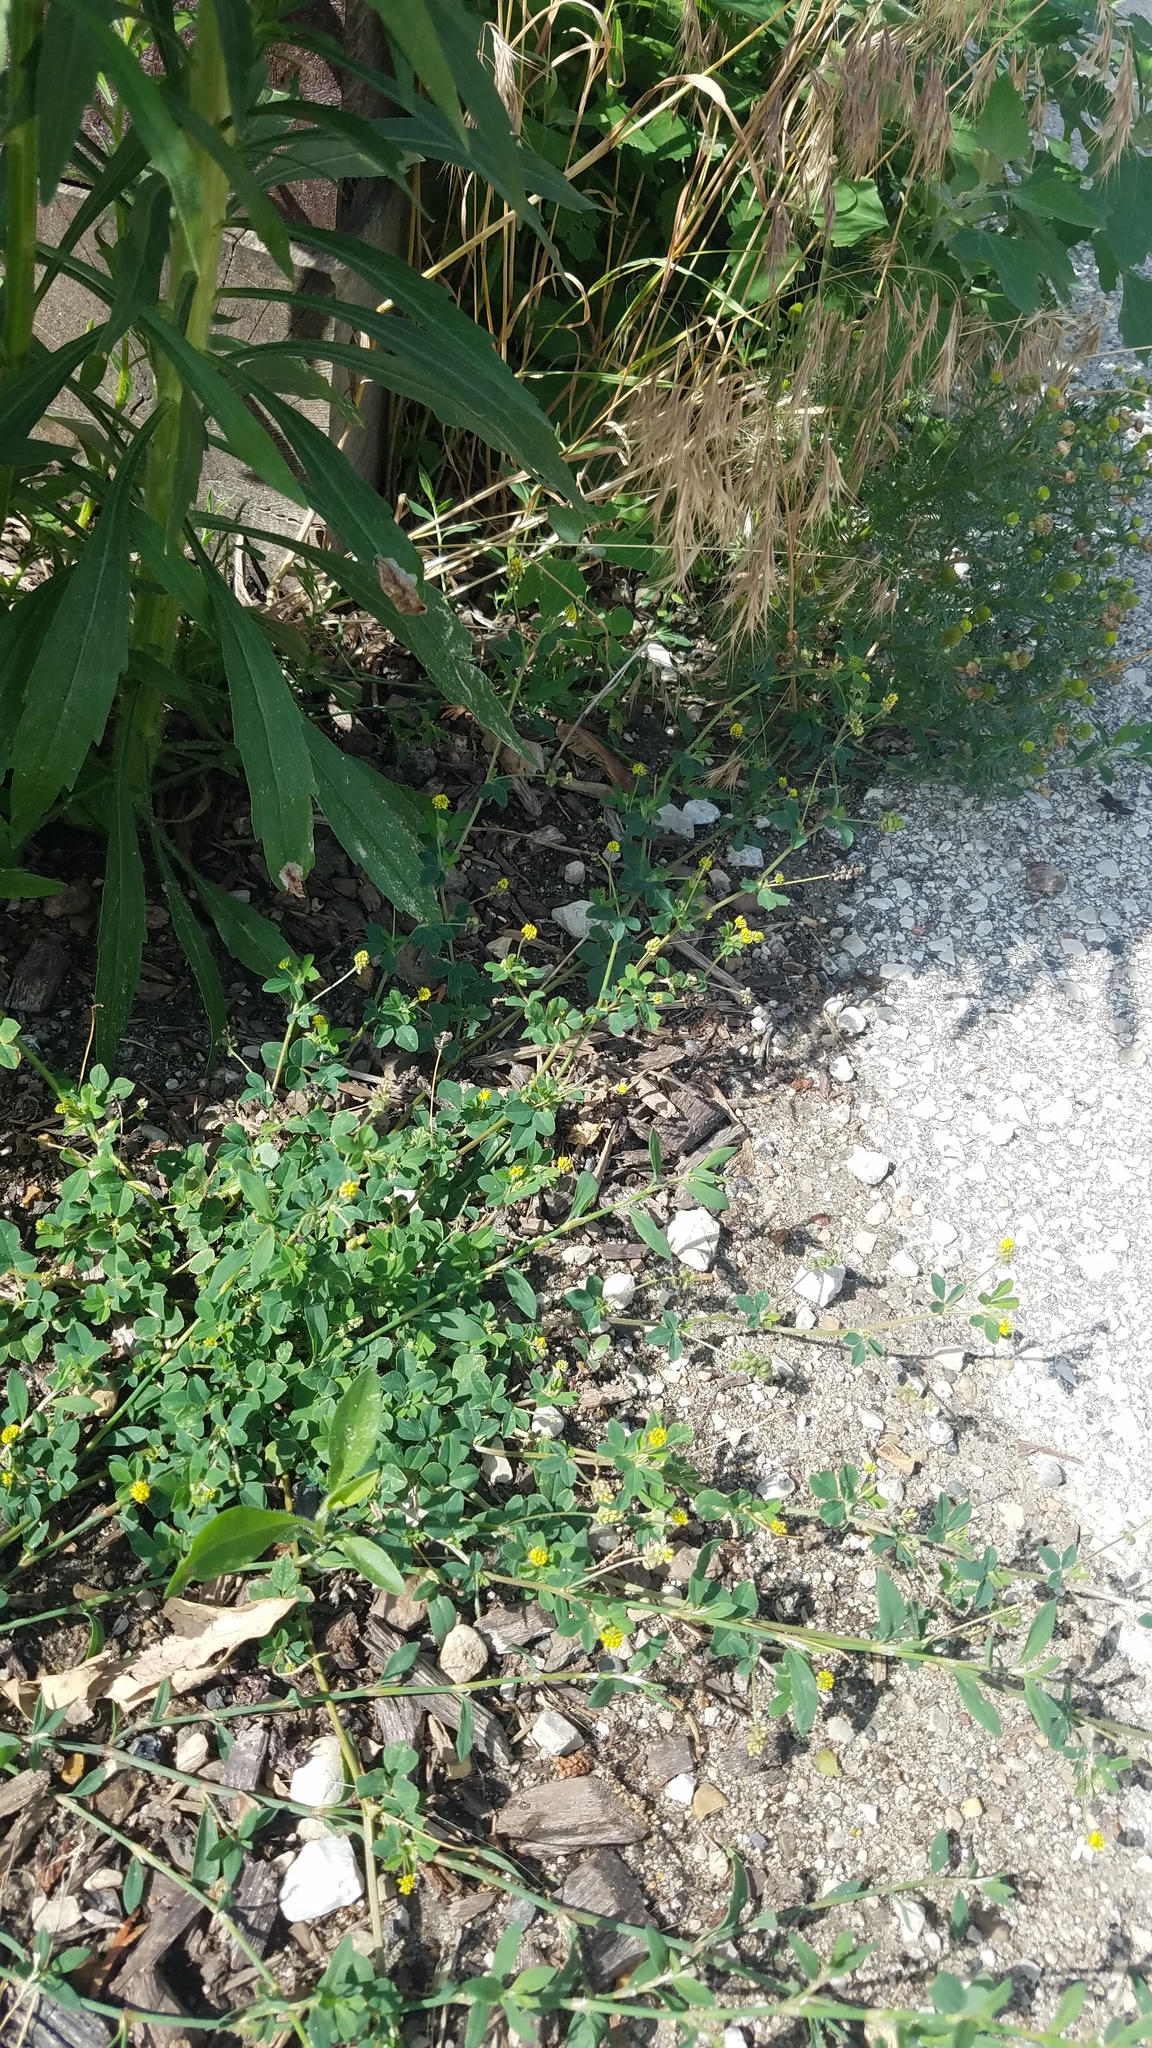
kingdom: Plantae
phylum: Tracheophyta
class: Magnoliopsida
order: Fabales
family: Fabaceae
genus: Medicago
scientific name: Medicago lupulina
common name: Black medick
